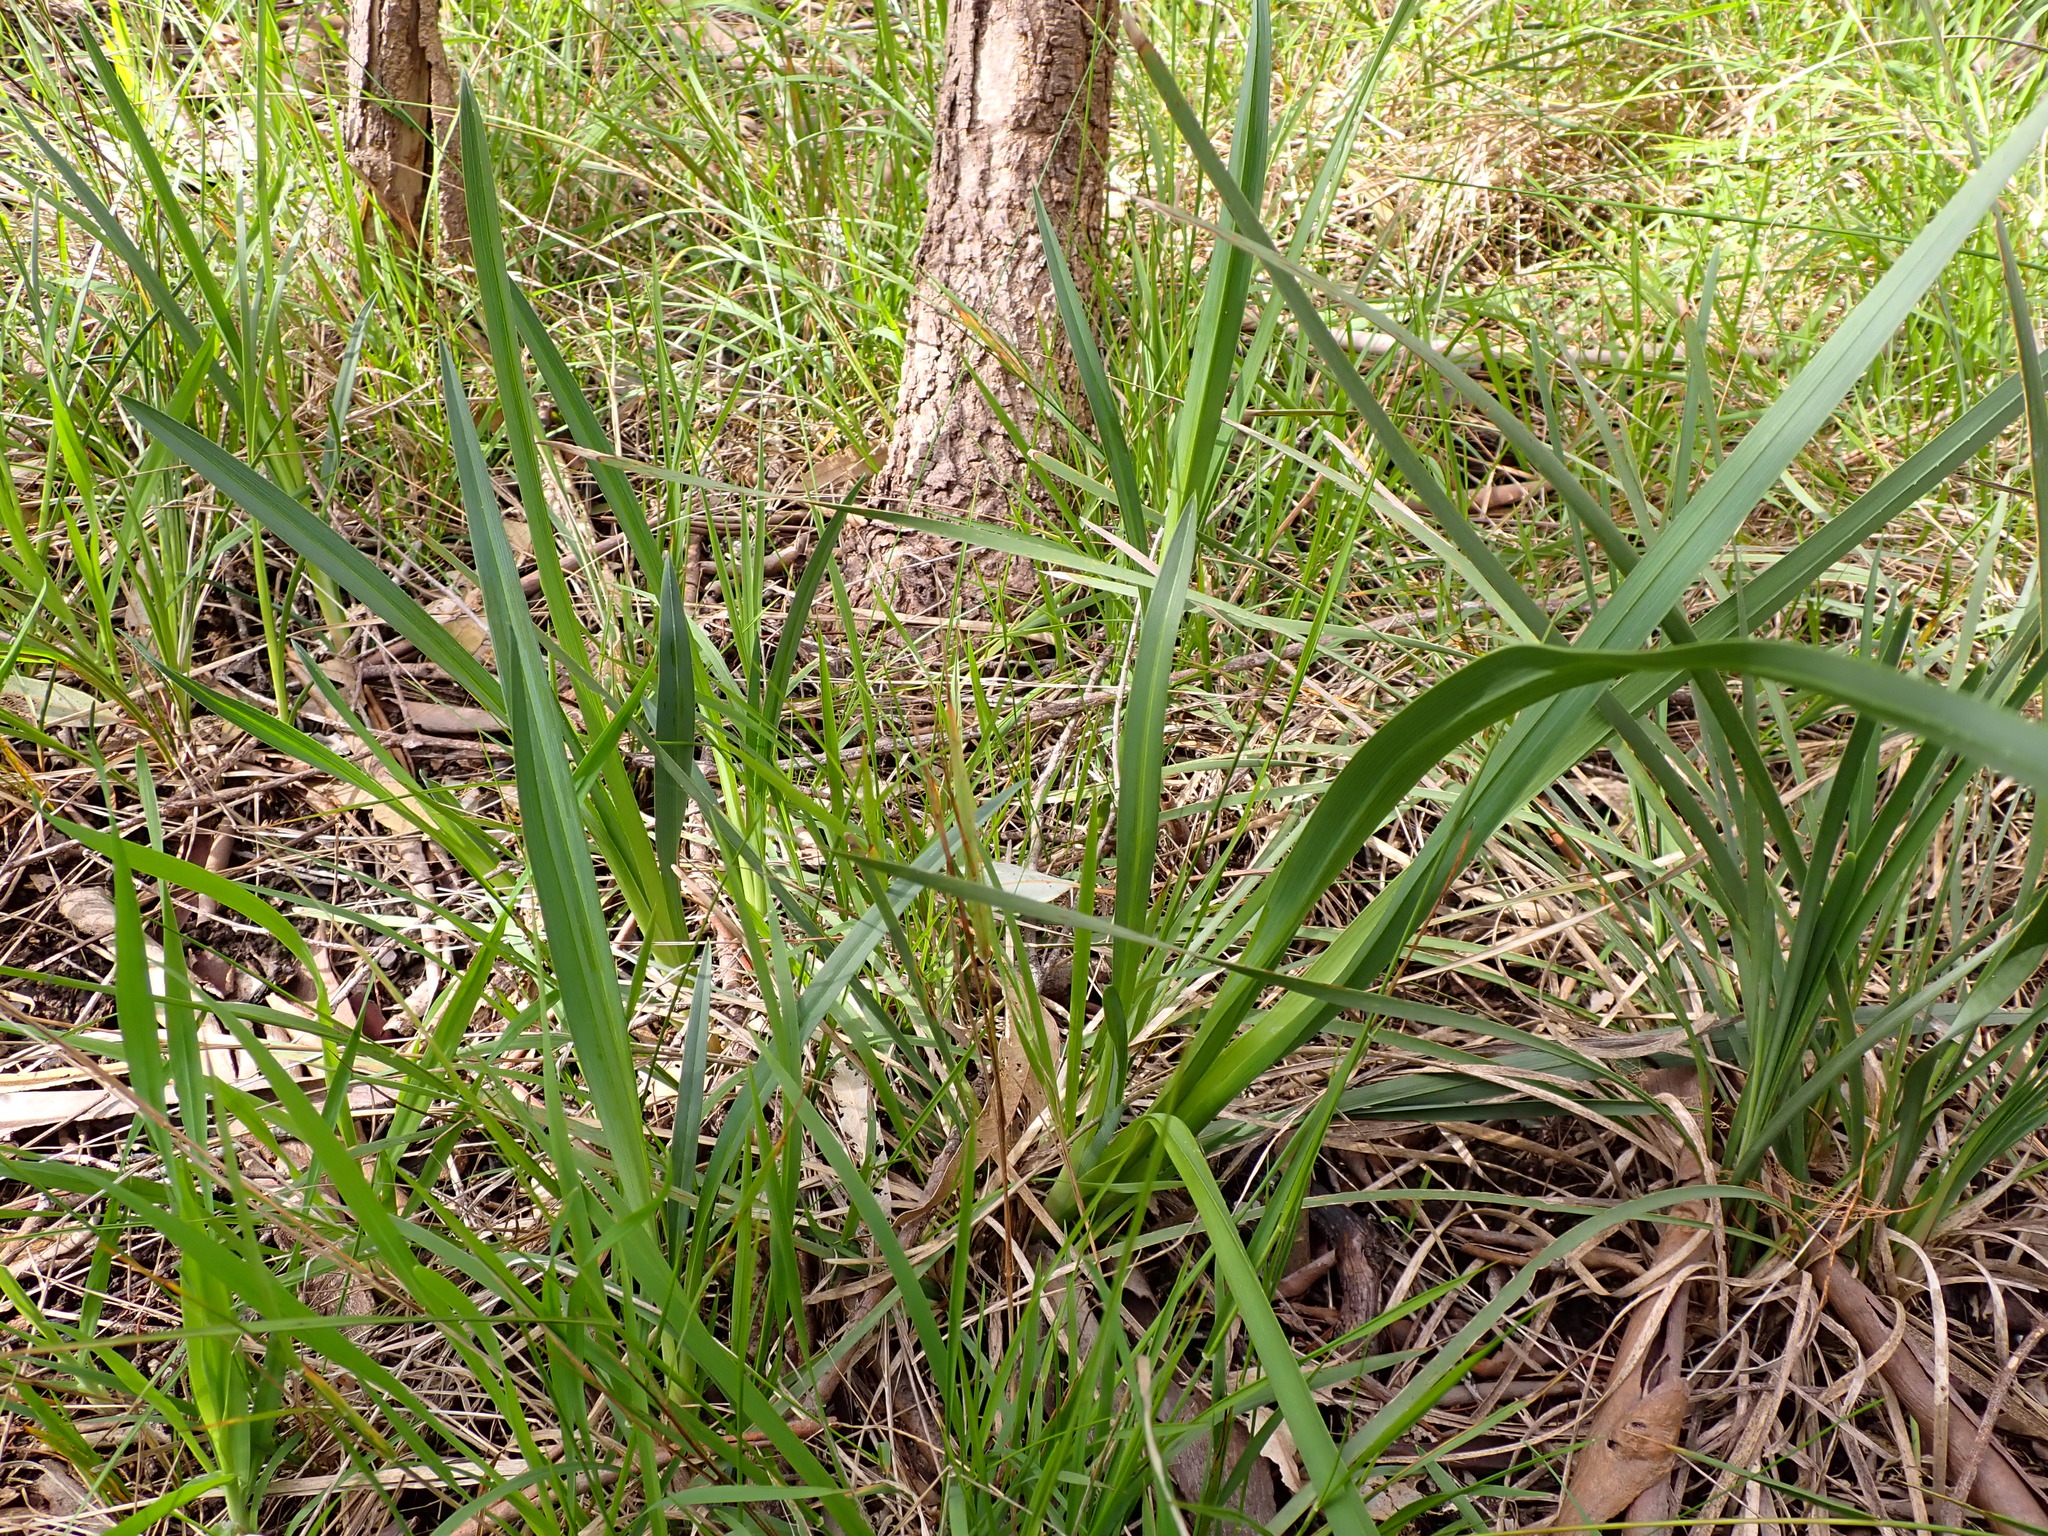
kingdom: Plantae
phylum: Tracheophyta
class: Liliopsida
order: Asparagales
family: Asphodelaceae
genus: Dianella
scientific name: Dianella amoena
